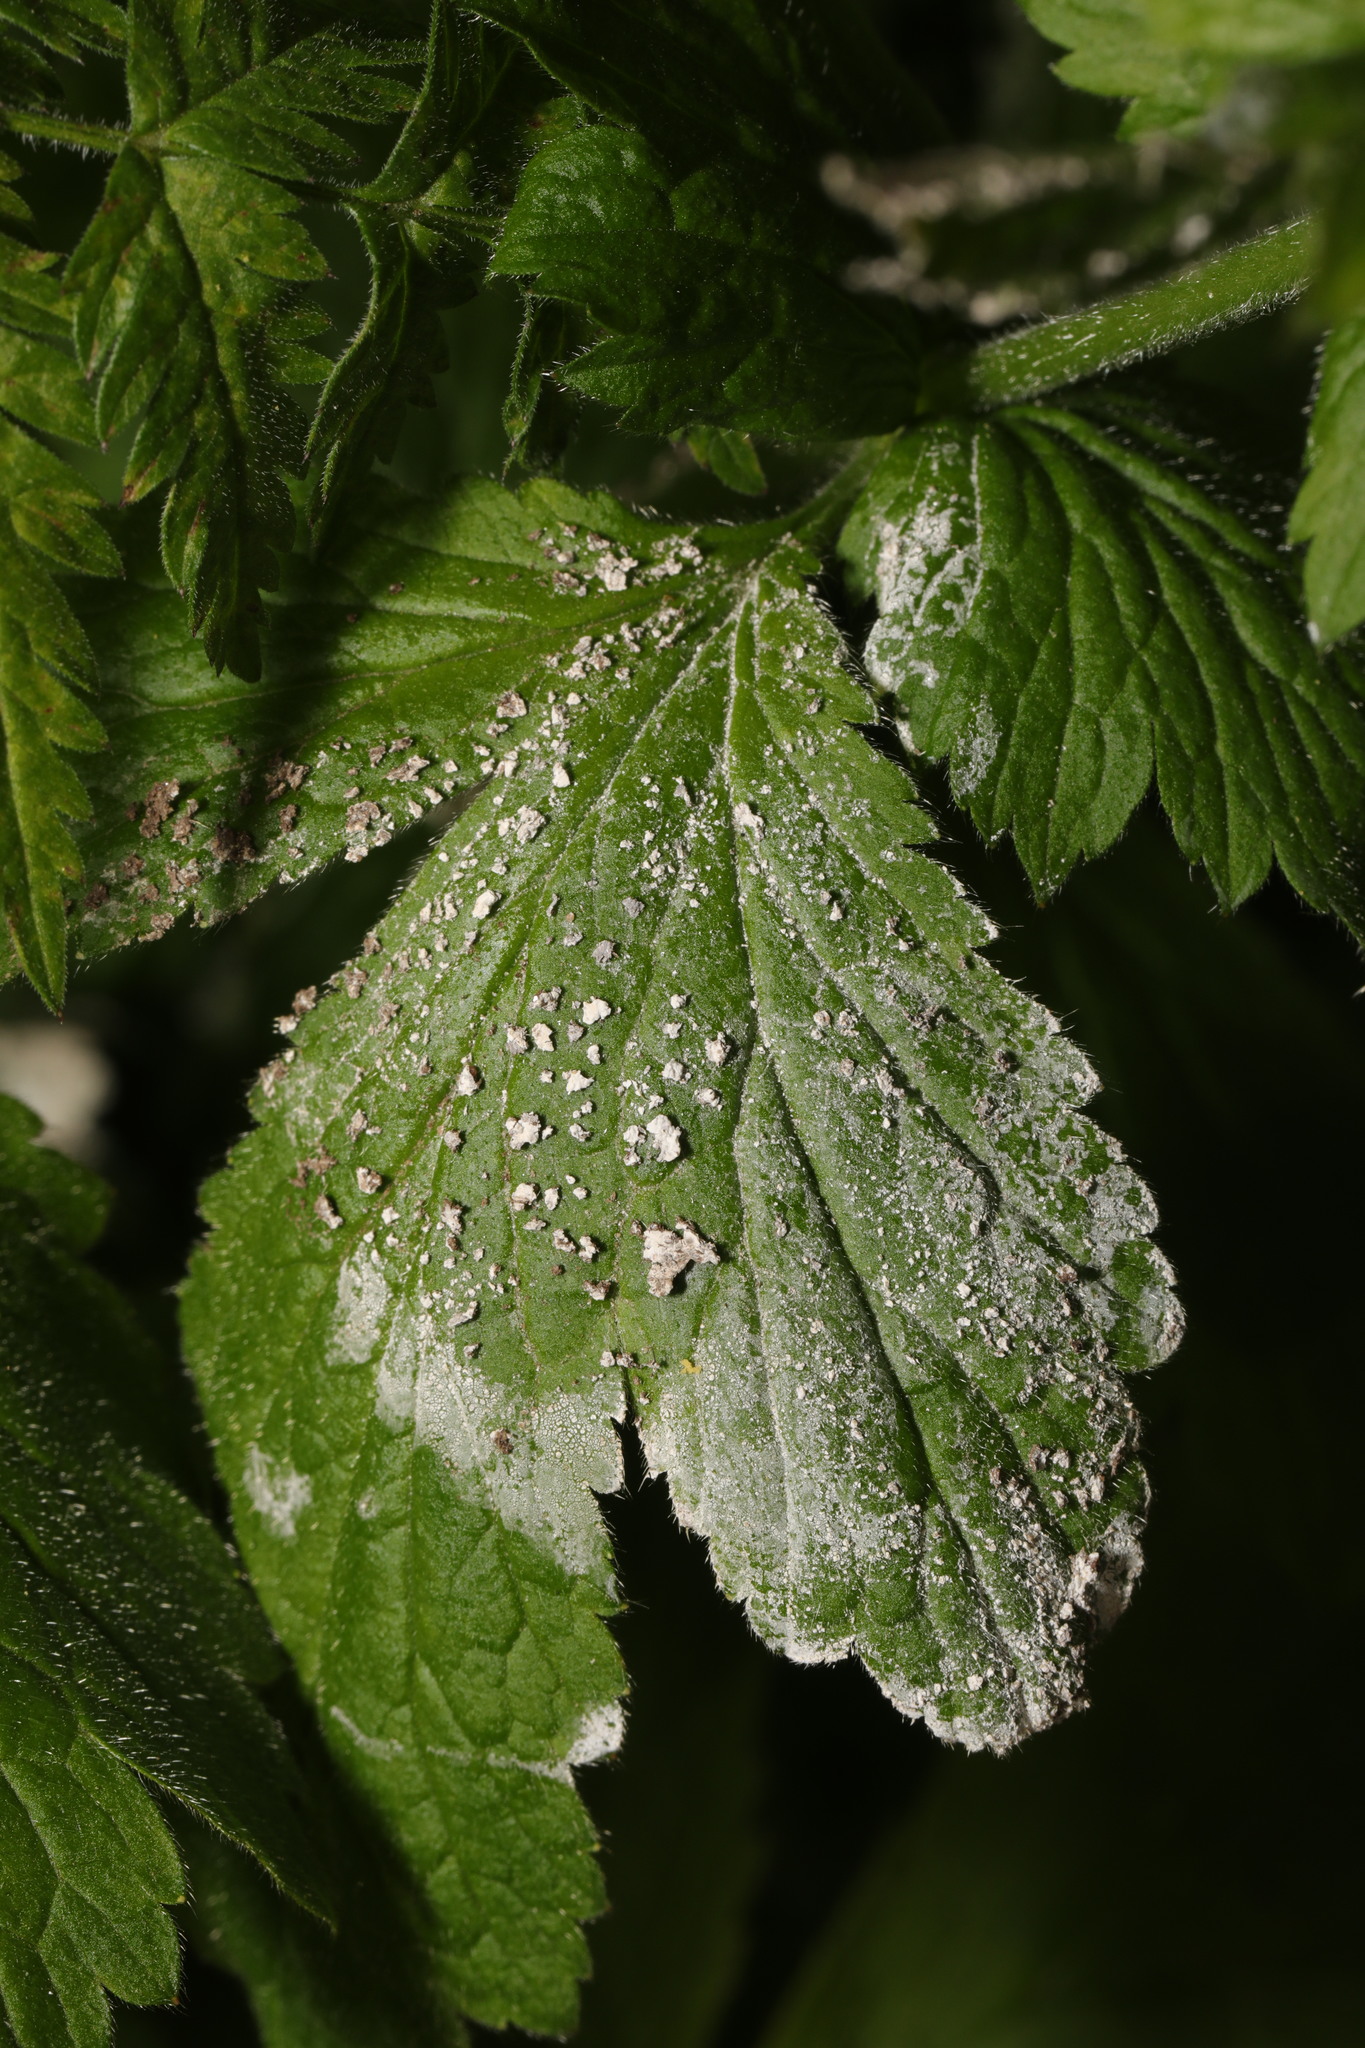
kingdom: Fungi
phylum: Ascomycota
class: Leotiomycetes
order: Helotiales
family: Erysiphaceae
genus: Podosphaera
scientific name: Podosphaera aphanis
